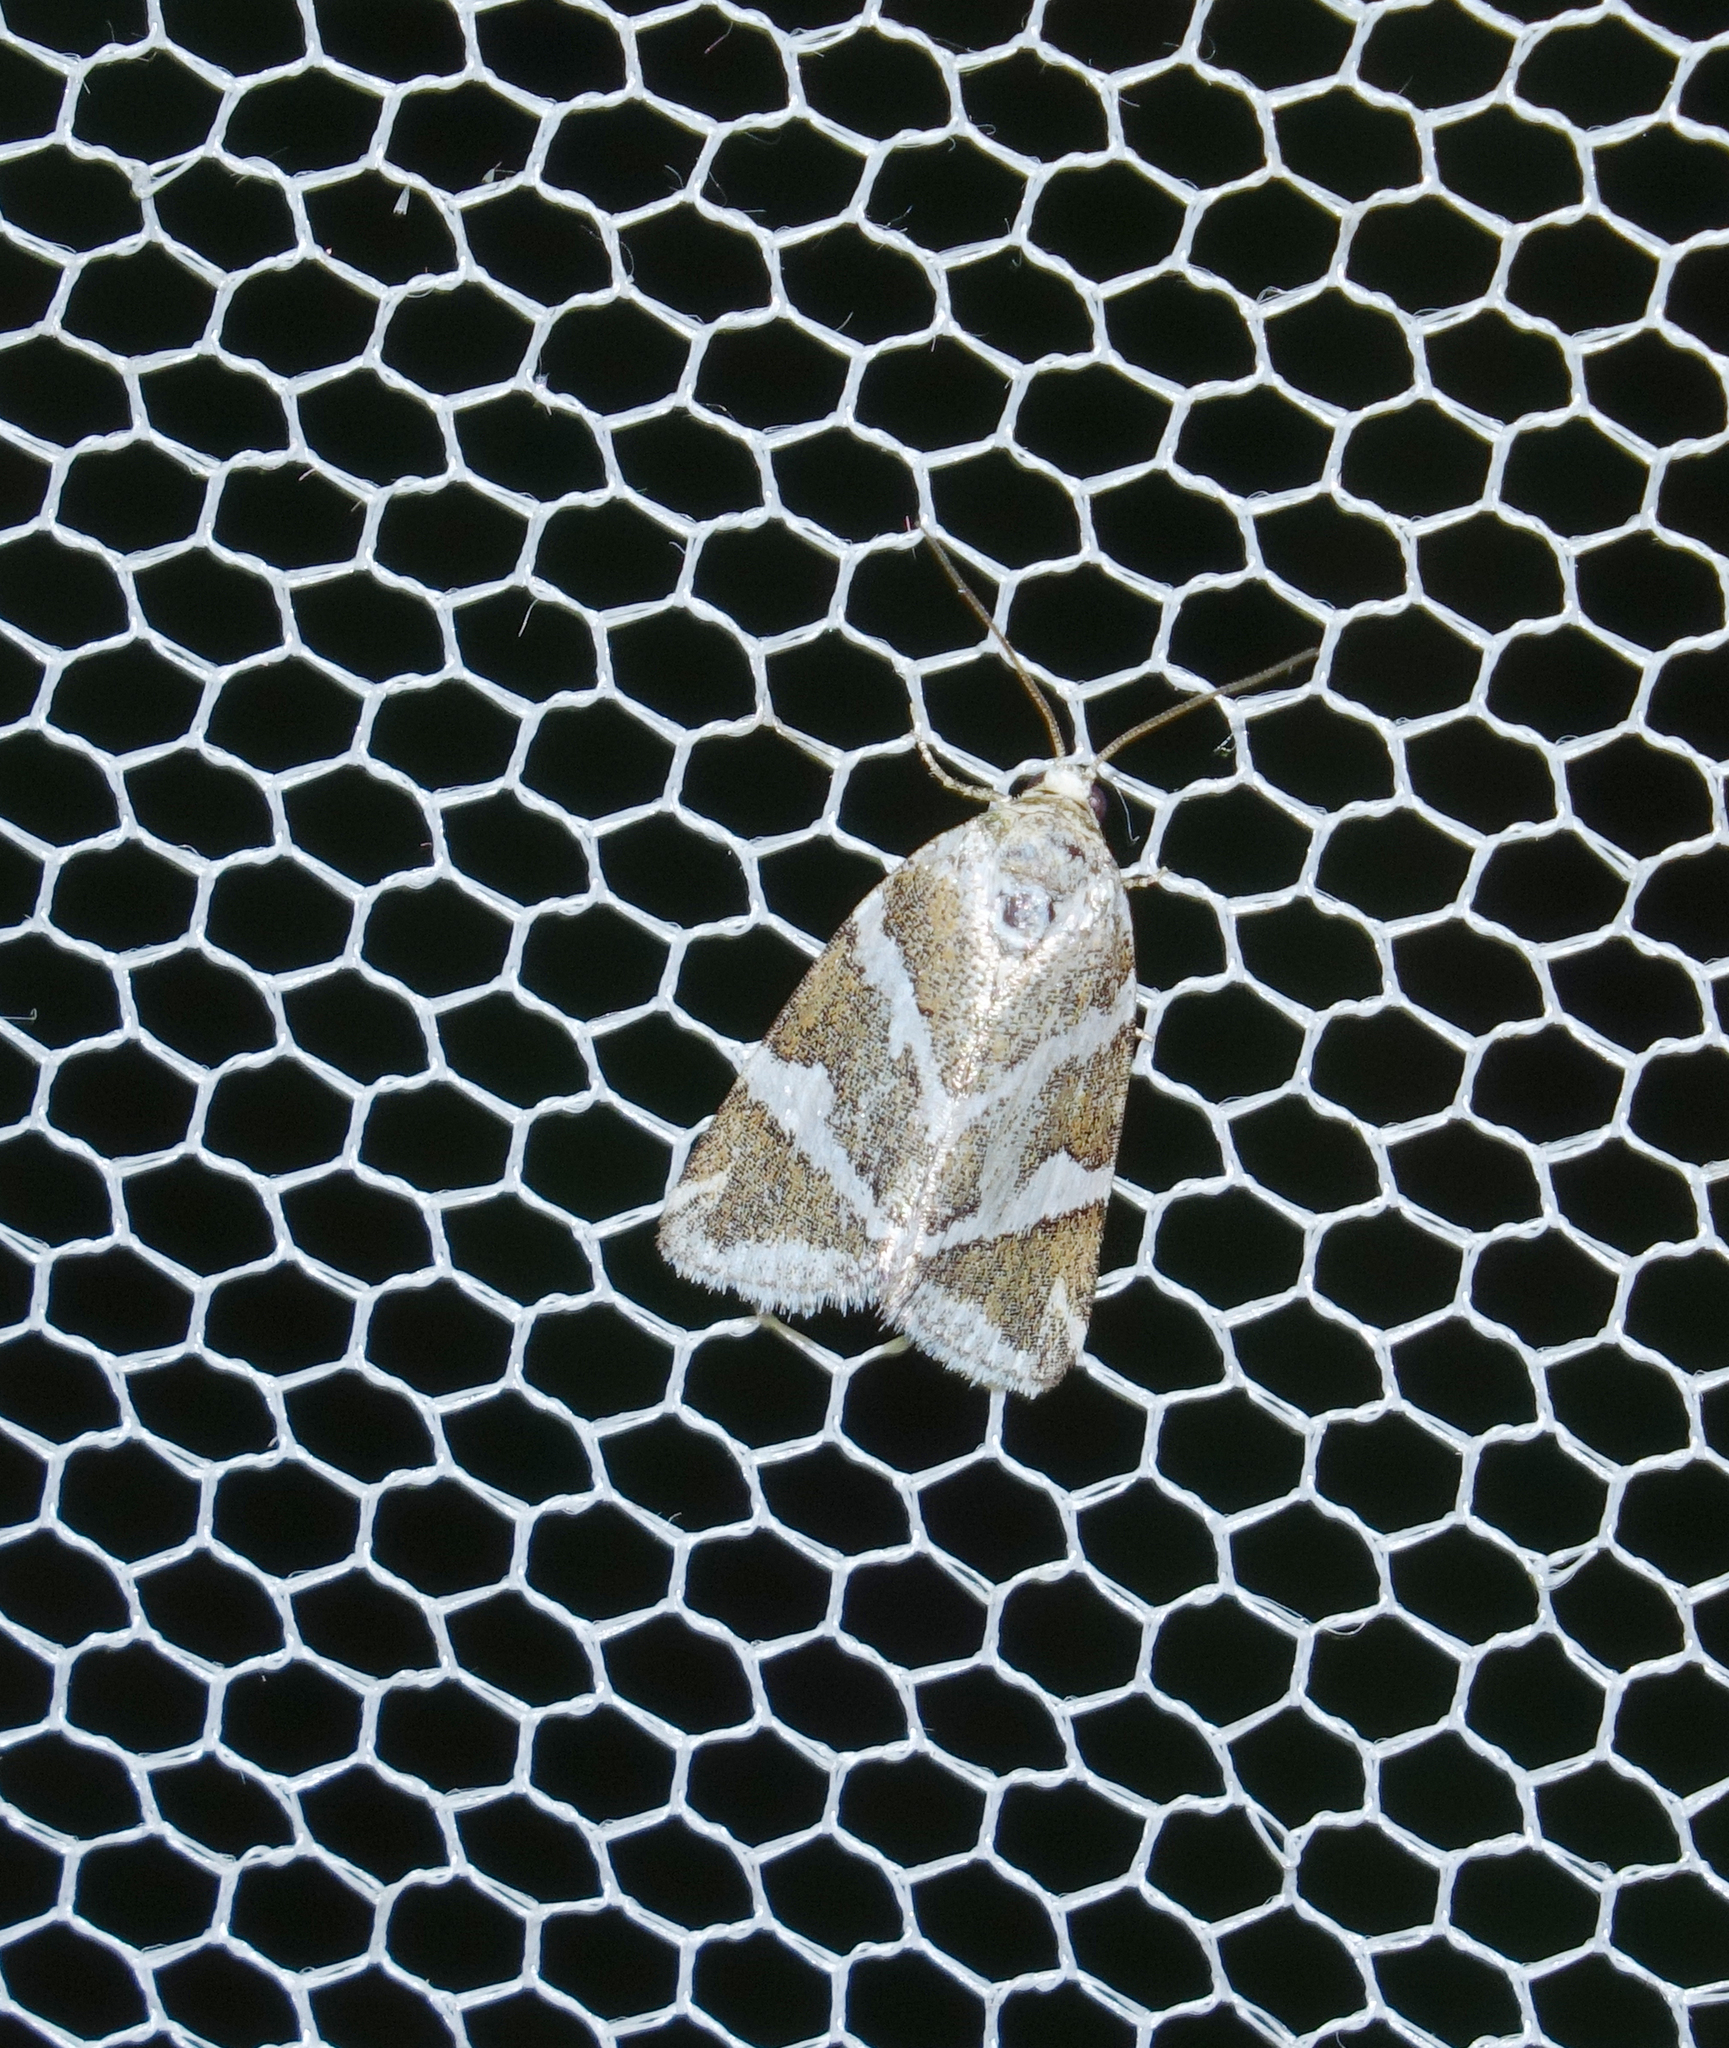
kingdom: Animalia
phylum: Arthropoda
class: Insecta
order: Lepidoptera
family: Noctuidae
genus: Deltote
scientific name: Deltote bankiana
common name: Silver barred
